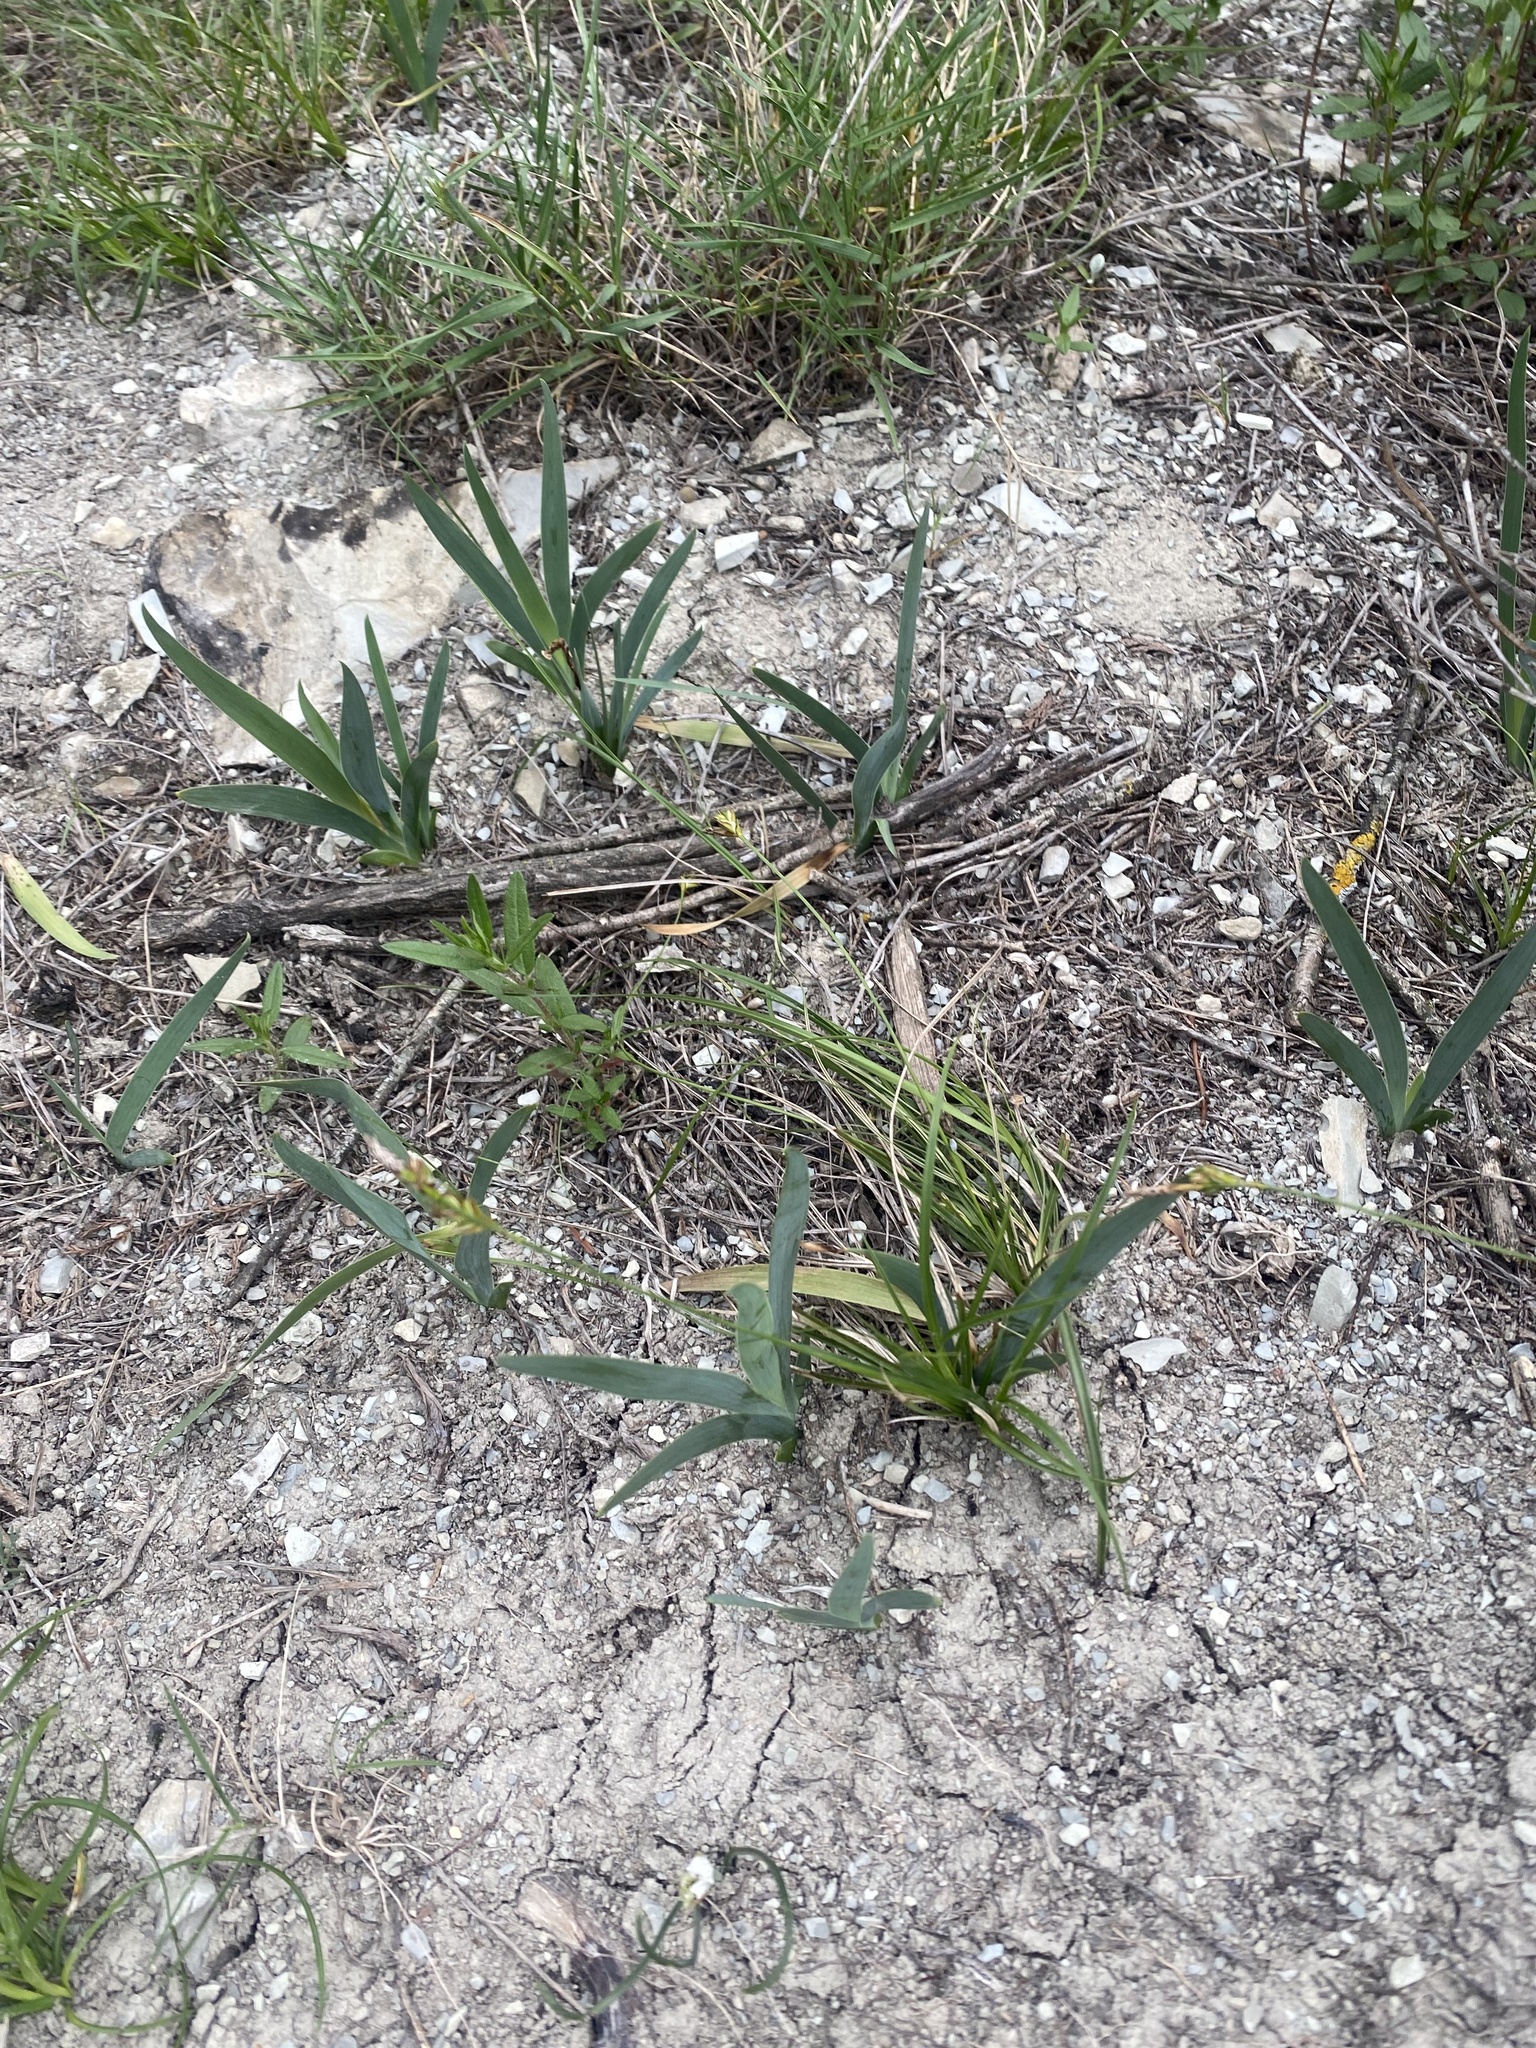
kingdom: Plantae
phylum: Tracheophyta
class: Liliopsida
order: Asparagales
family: Iridaceae
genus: Iris
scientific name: Iris pumila
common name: Dwarf iris
